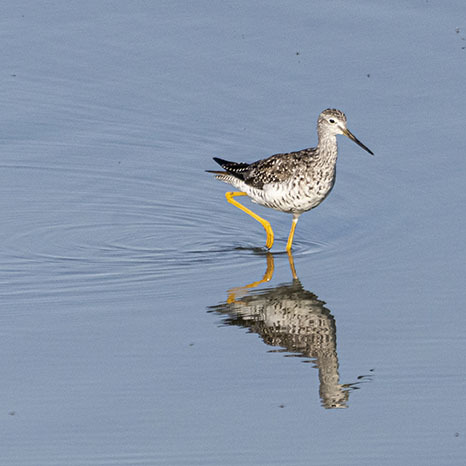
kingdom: Animalia
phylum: Chordata
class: Aves
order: Charadriiformes
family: Scolopacidae
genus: Tringa
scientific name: Tringa melanoleuca
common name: Greater yellowlegs
